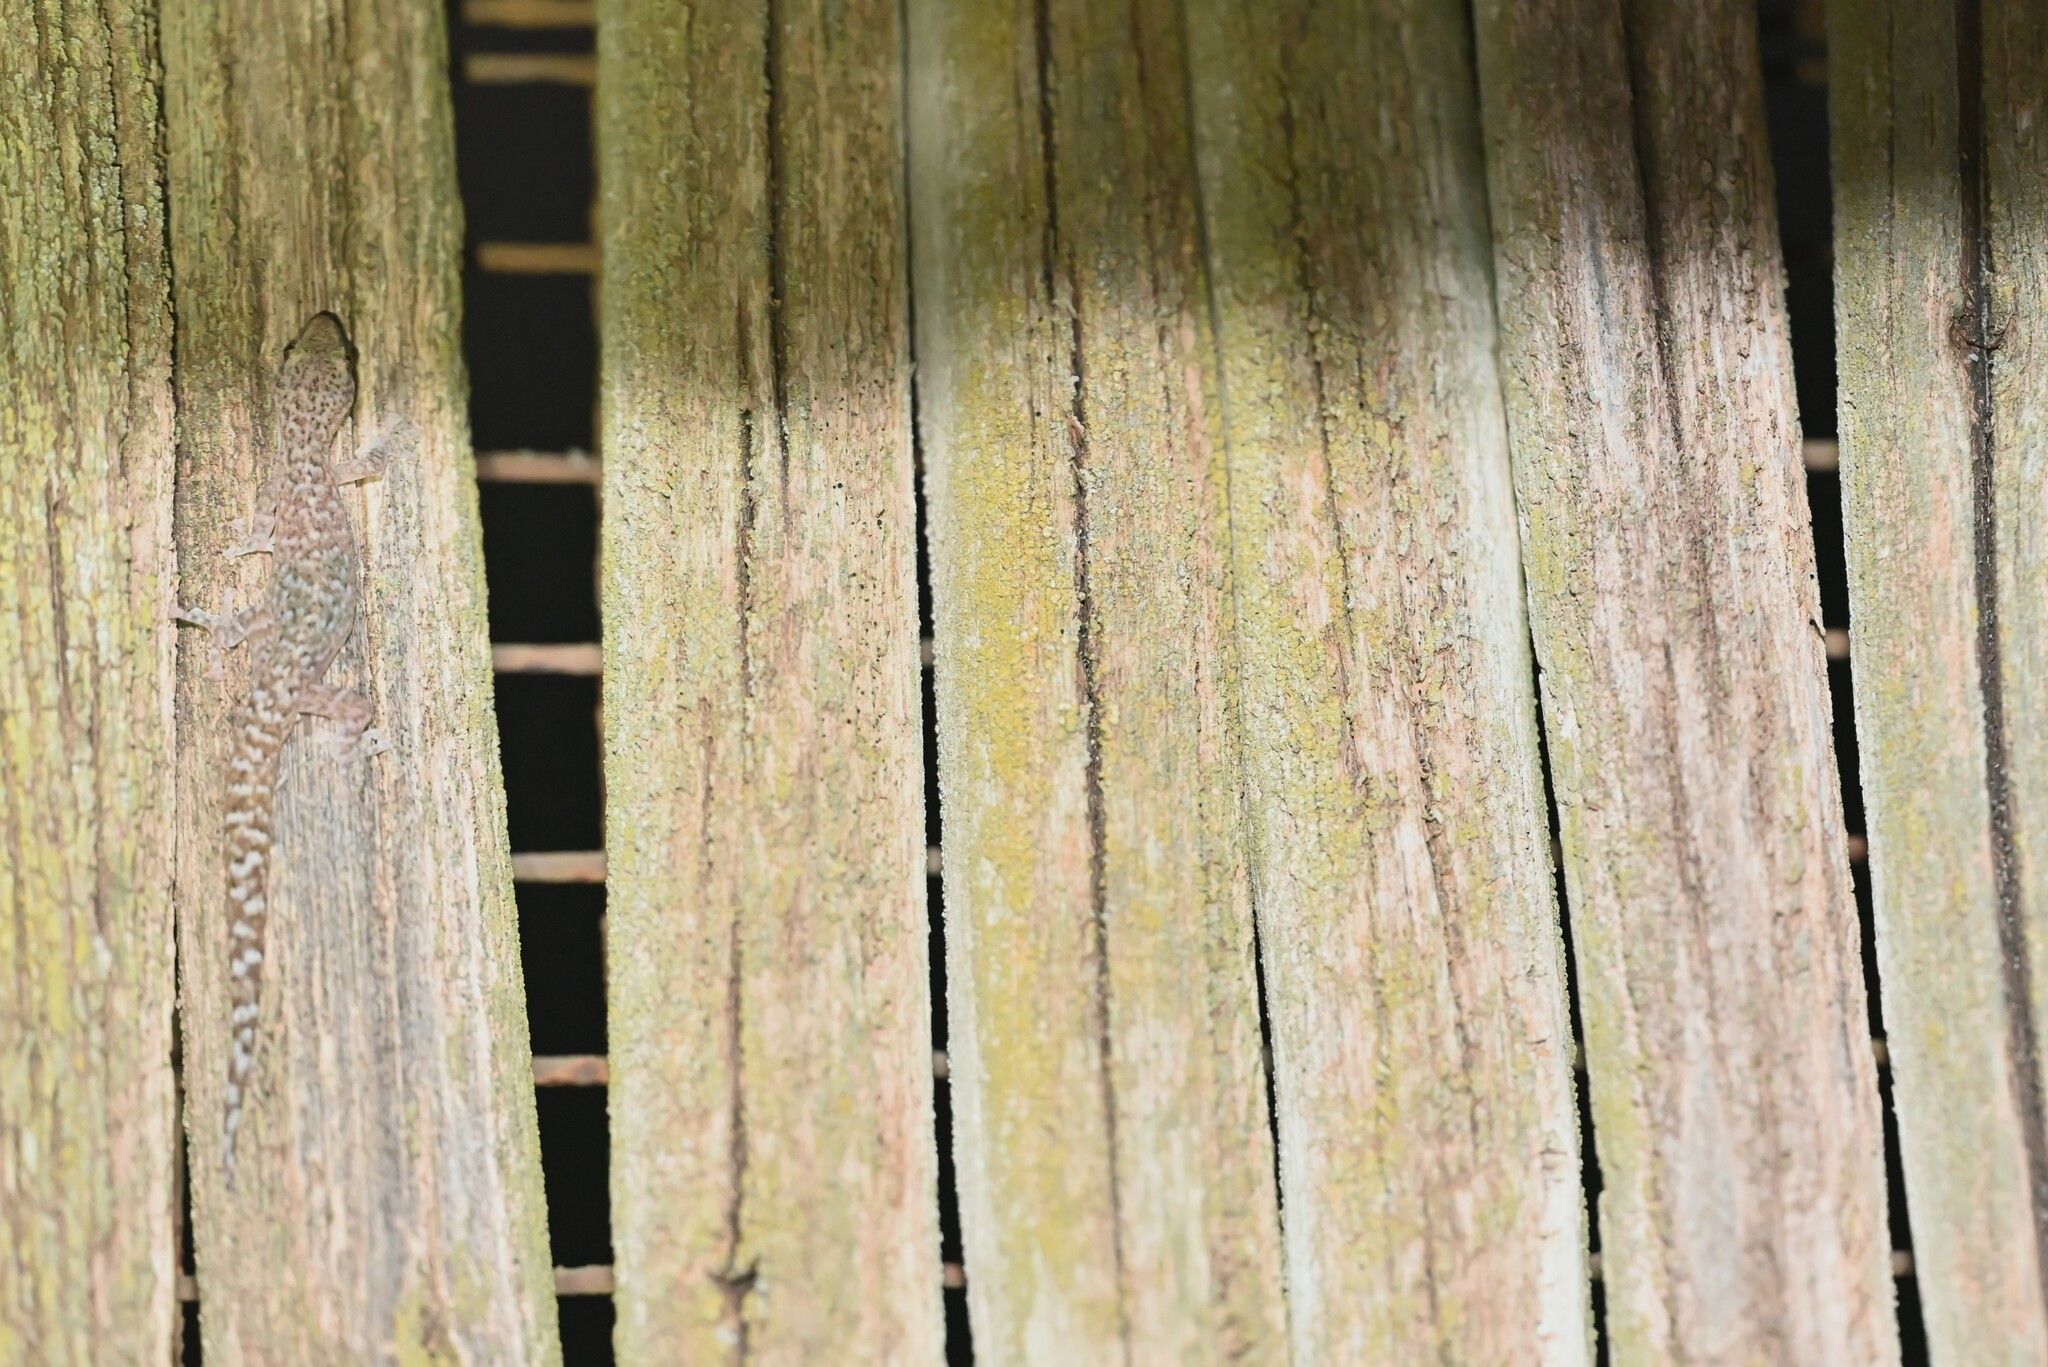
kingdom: Animalia
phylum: Chordata
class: Squamata
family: Gekkonidae
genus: Afrogecko
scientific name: Afrogecko porphyreus
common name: Marbled leaf-toed gecko
